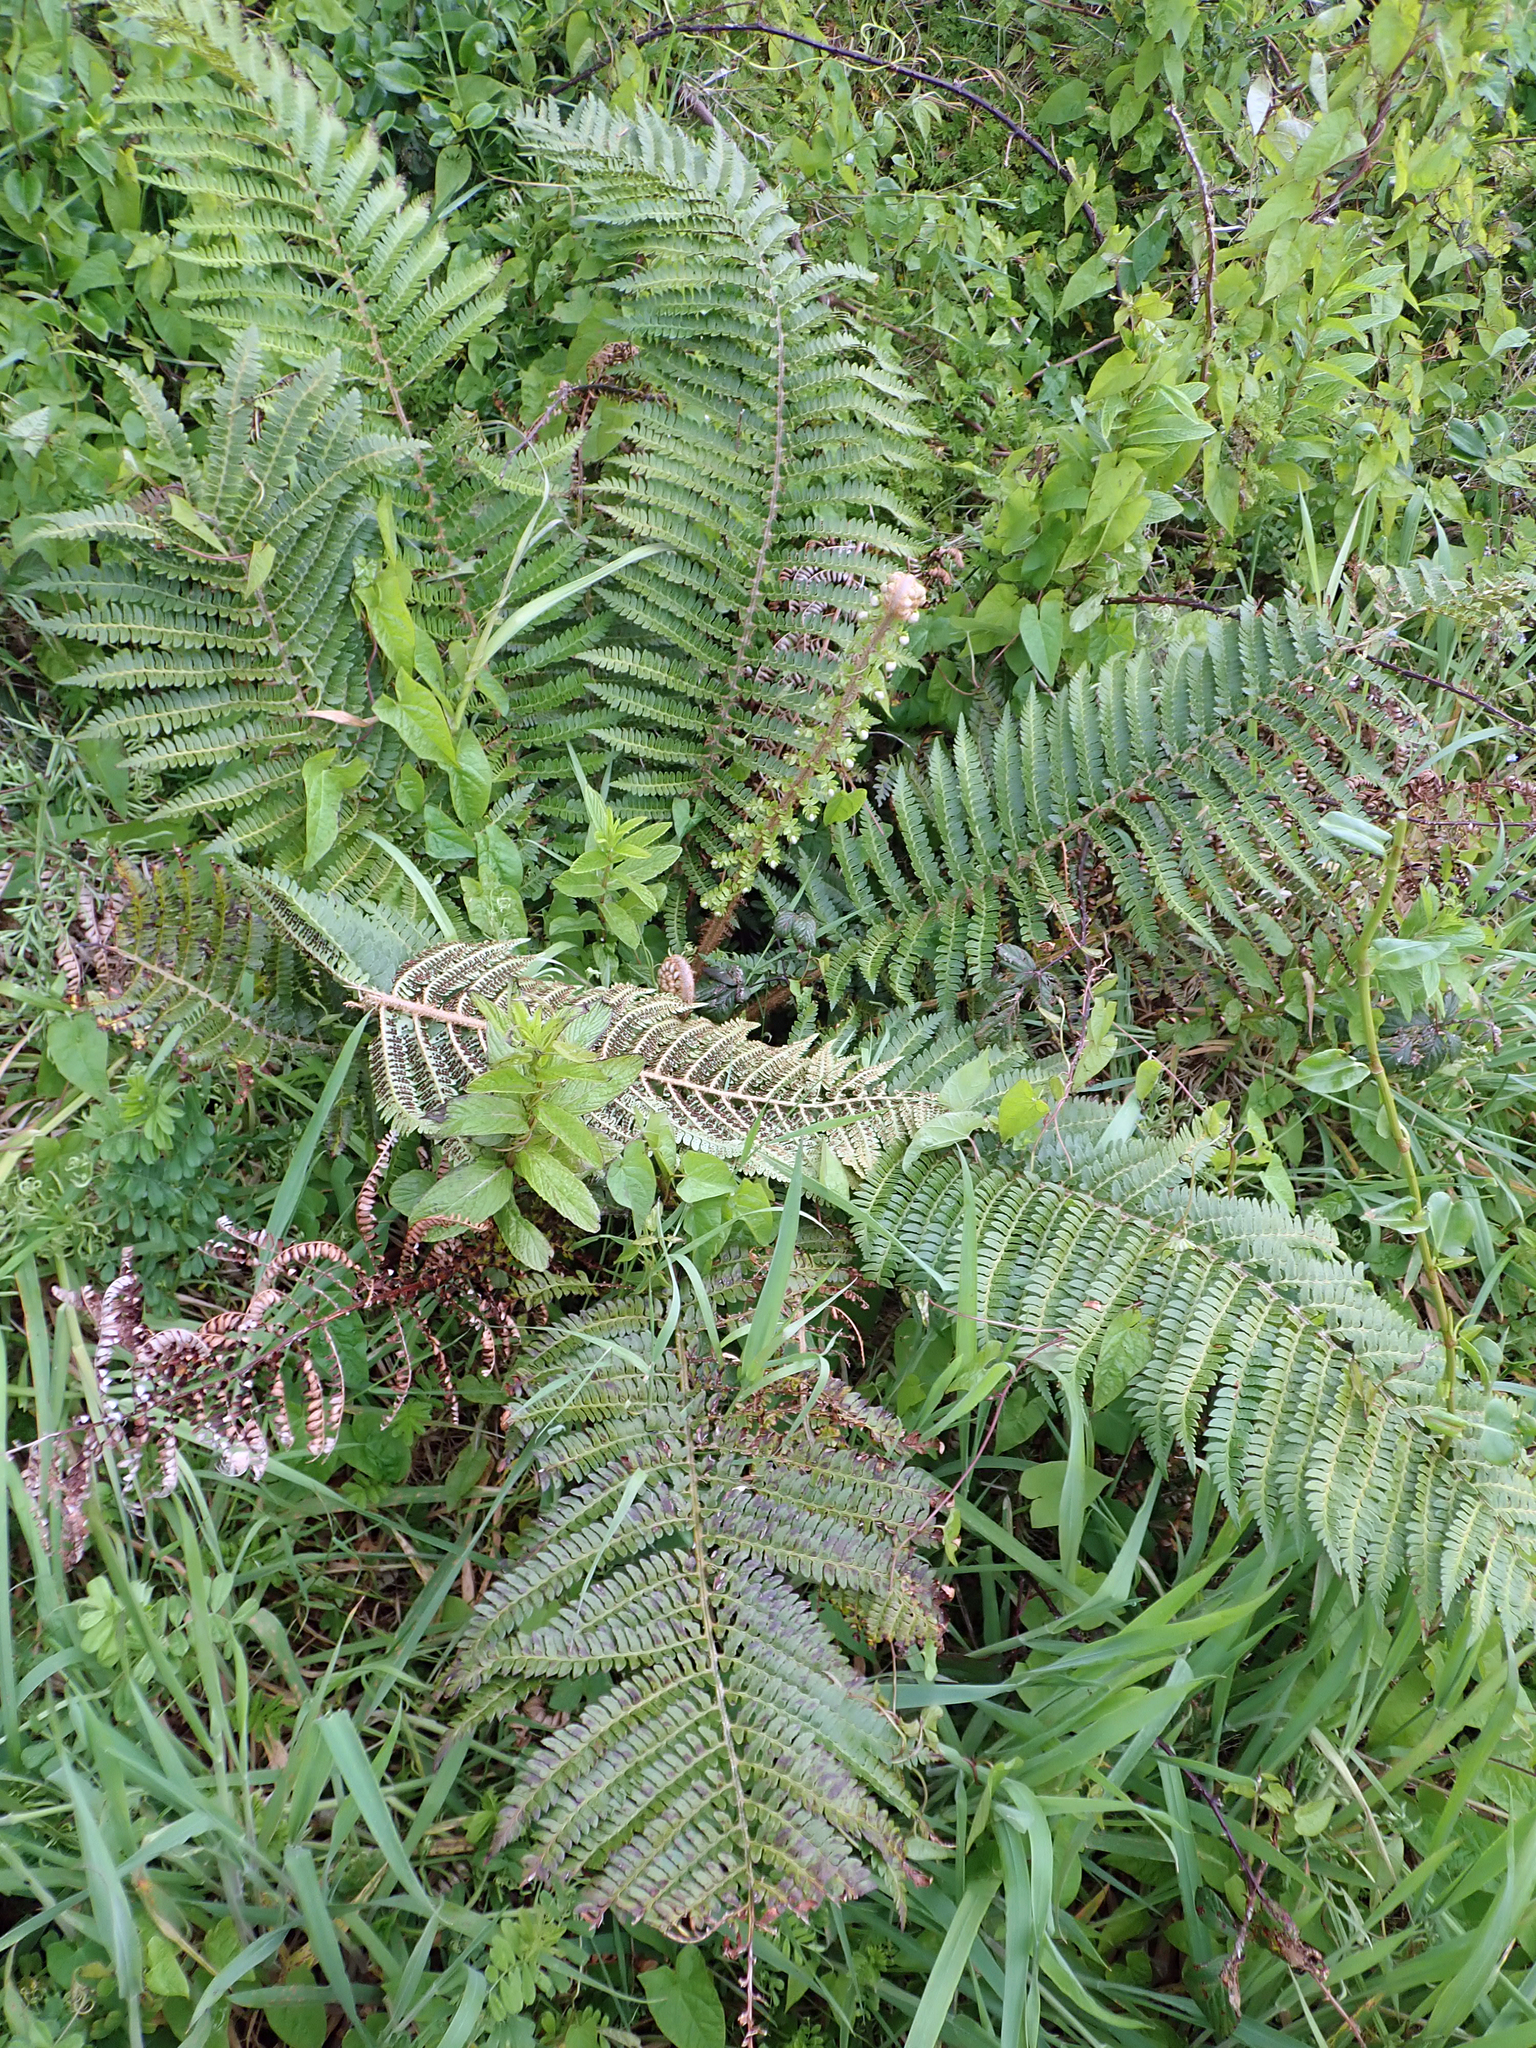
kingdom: Plantae
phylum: Tracheophyta
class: Polypodiopsida
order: Polypodiales
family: Dryopteridaceae
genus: Polystichum
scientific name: Polystichum vestitum
